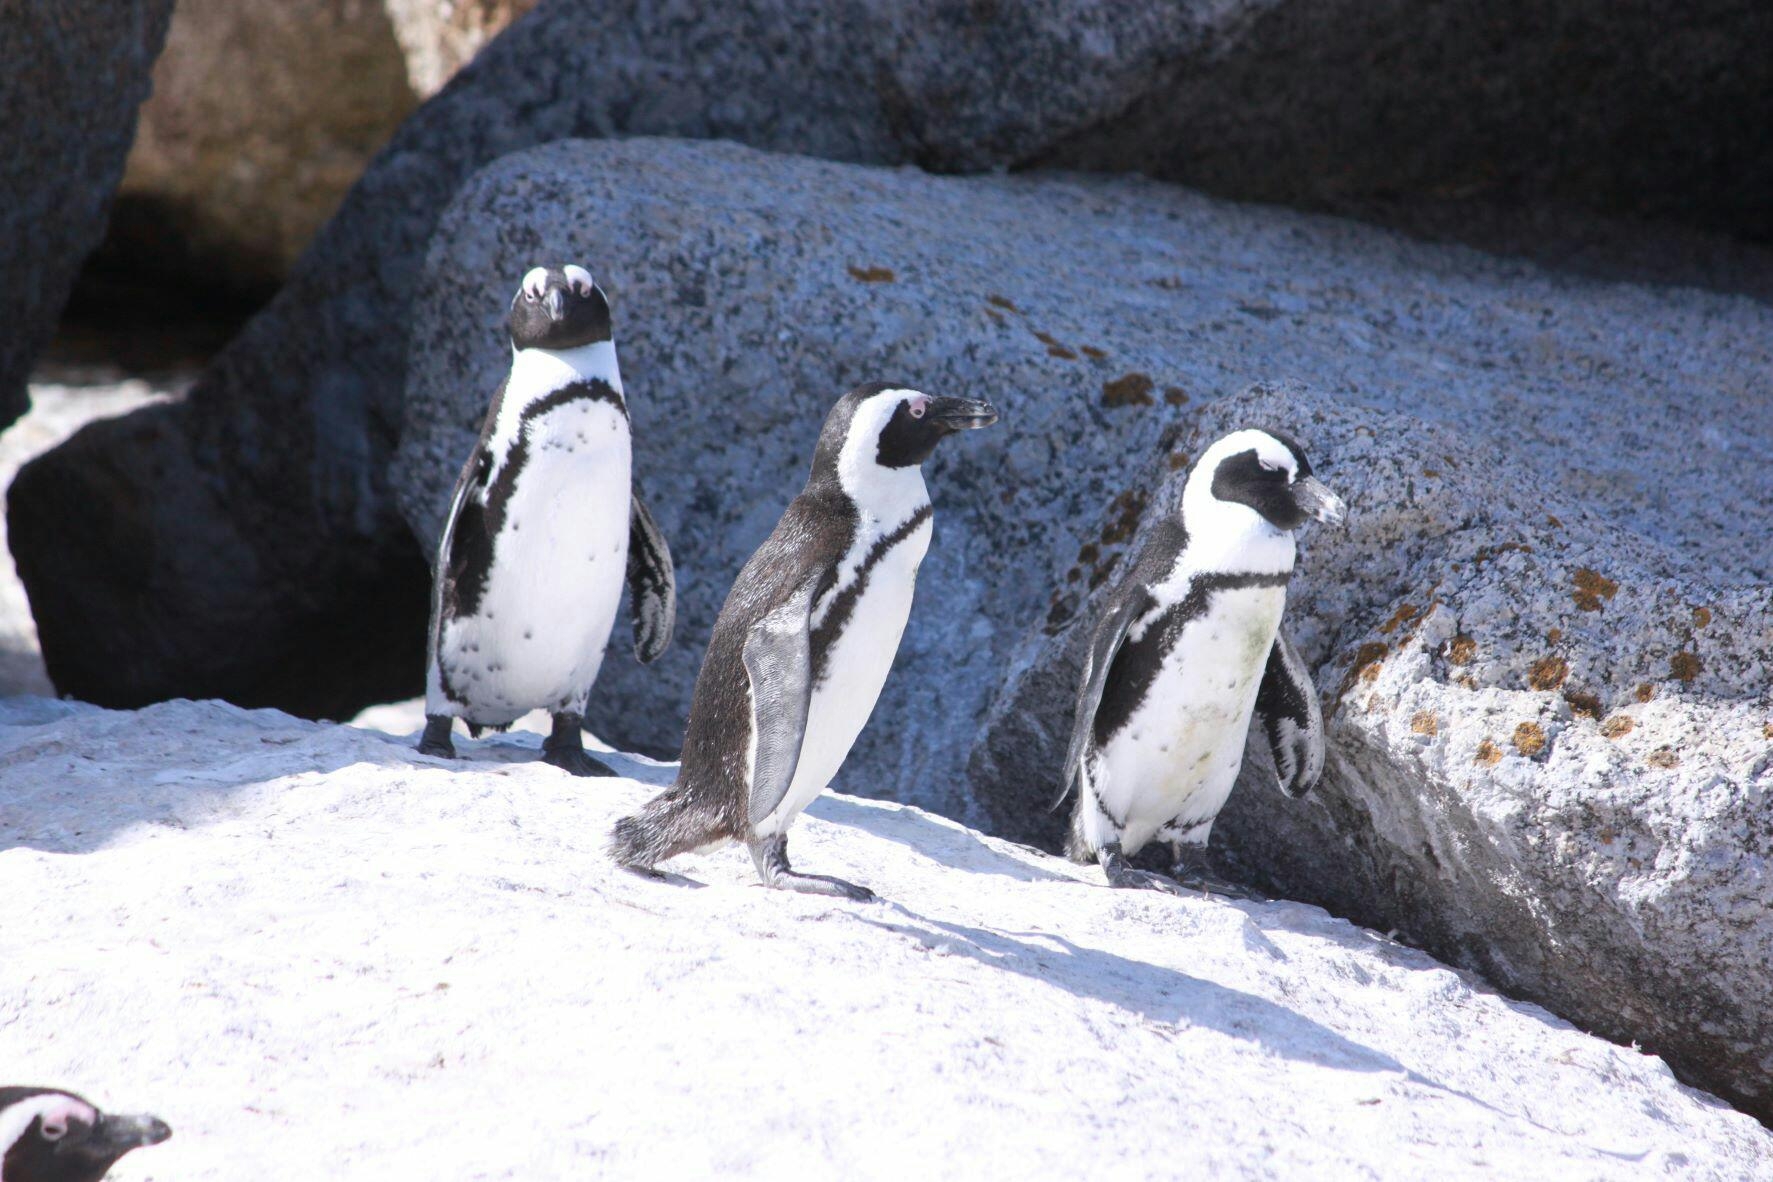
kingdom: Animalia
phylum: Chordata
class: Aves
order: Sphenisciformes
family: Spheniscidae
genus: Spheniscus
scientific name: Spheniscus demersus
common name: African penguin
